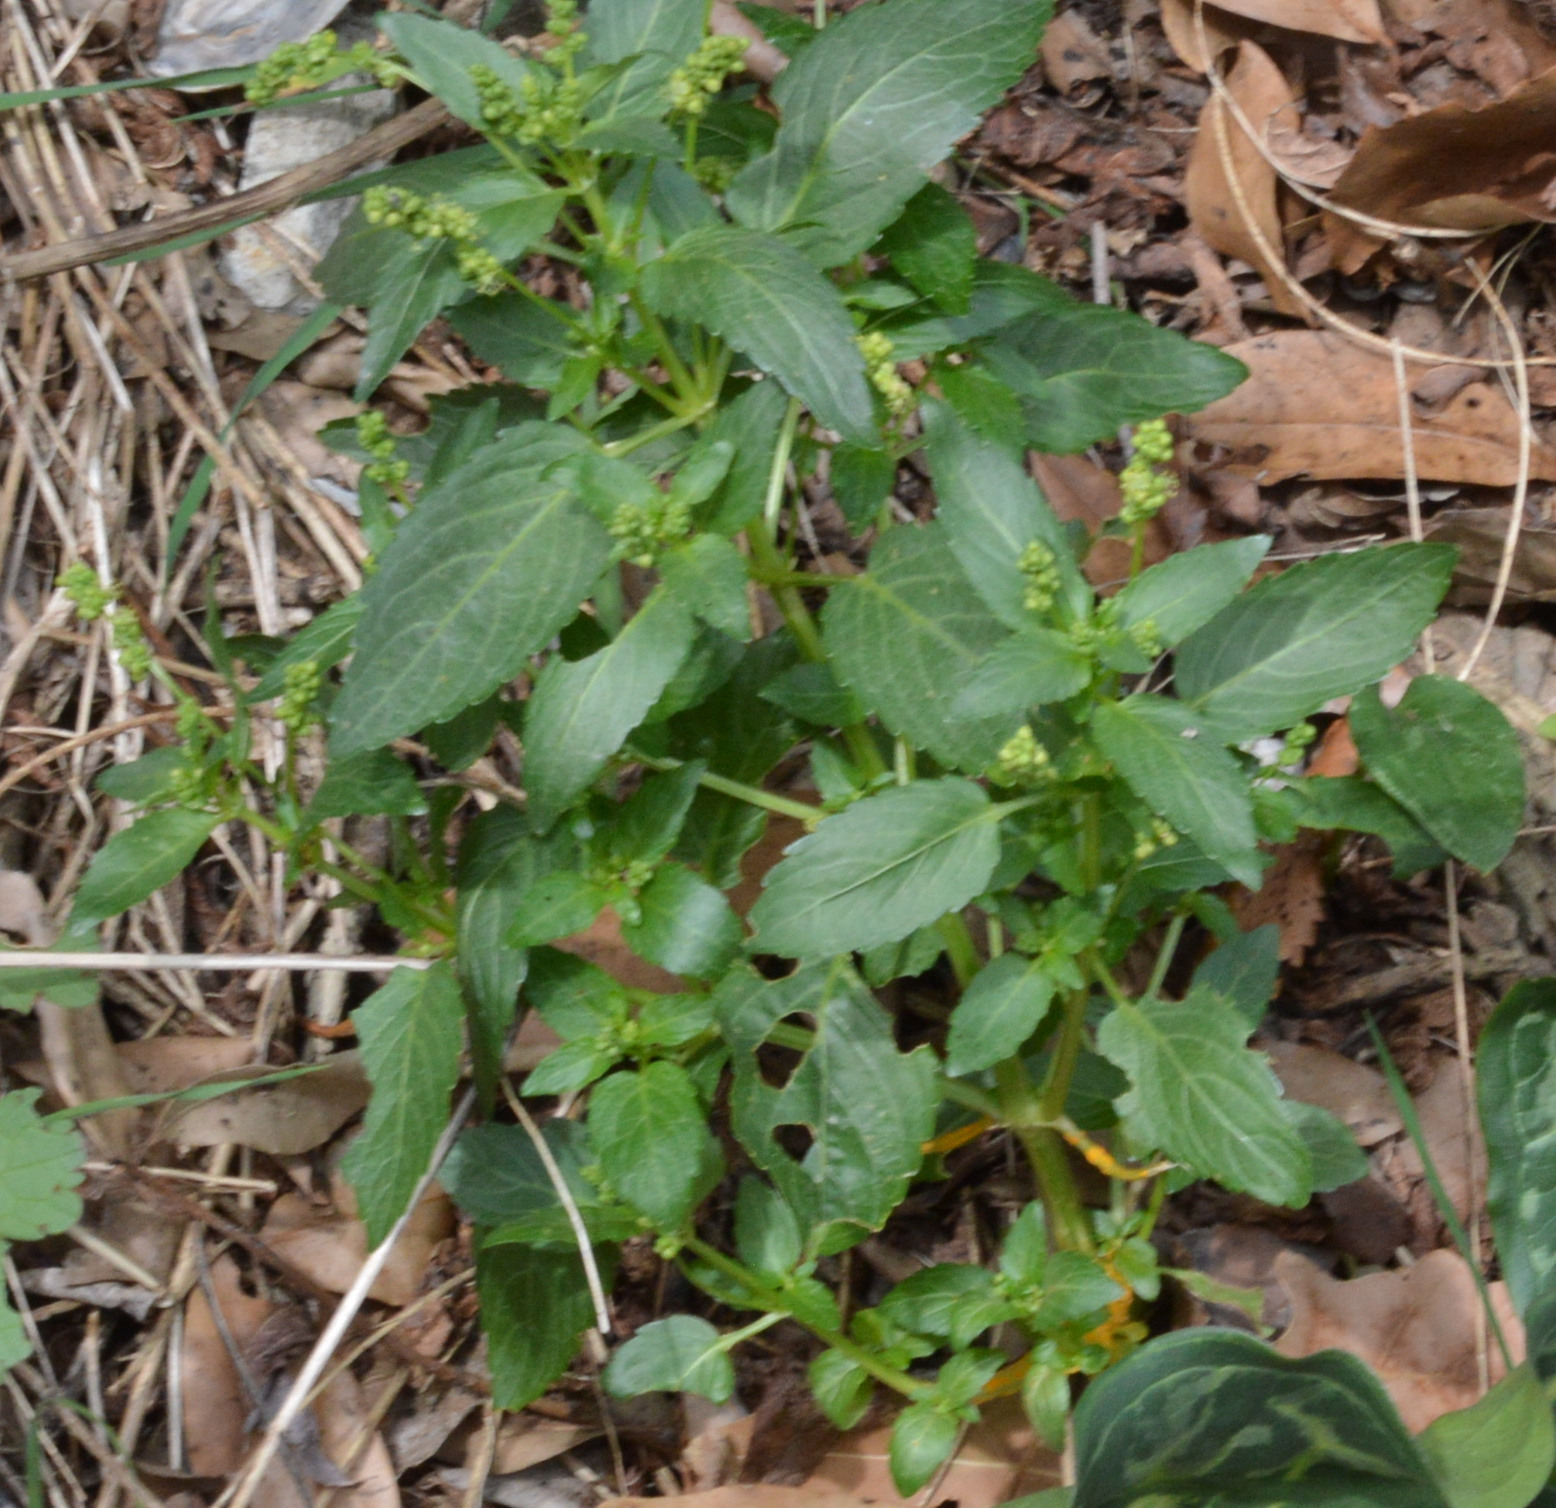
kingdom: Plantae
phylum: Tracheophyta
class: Magnoliopsida
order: Malpighiales
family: Euphorbiaceae
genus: Mercurialis
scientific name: Mercurialis annua
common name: Annual mercury
